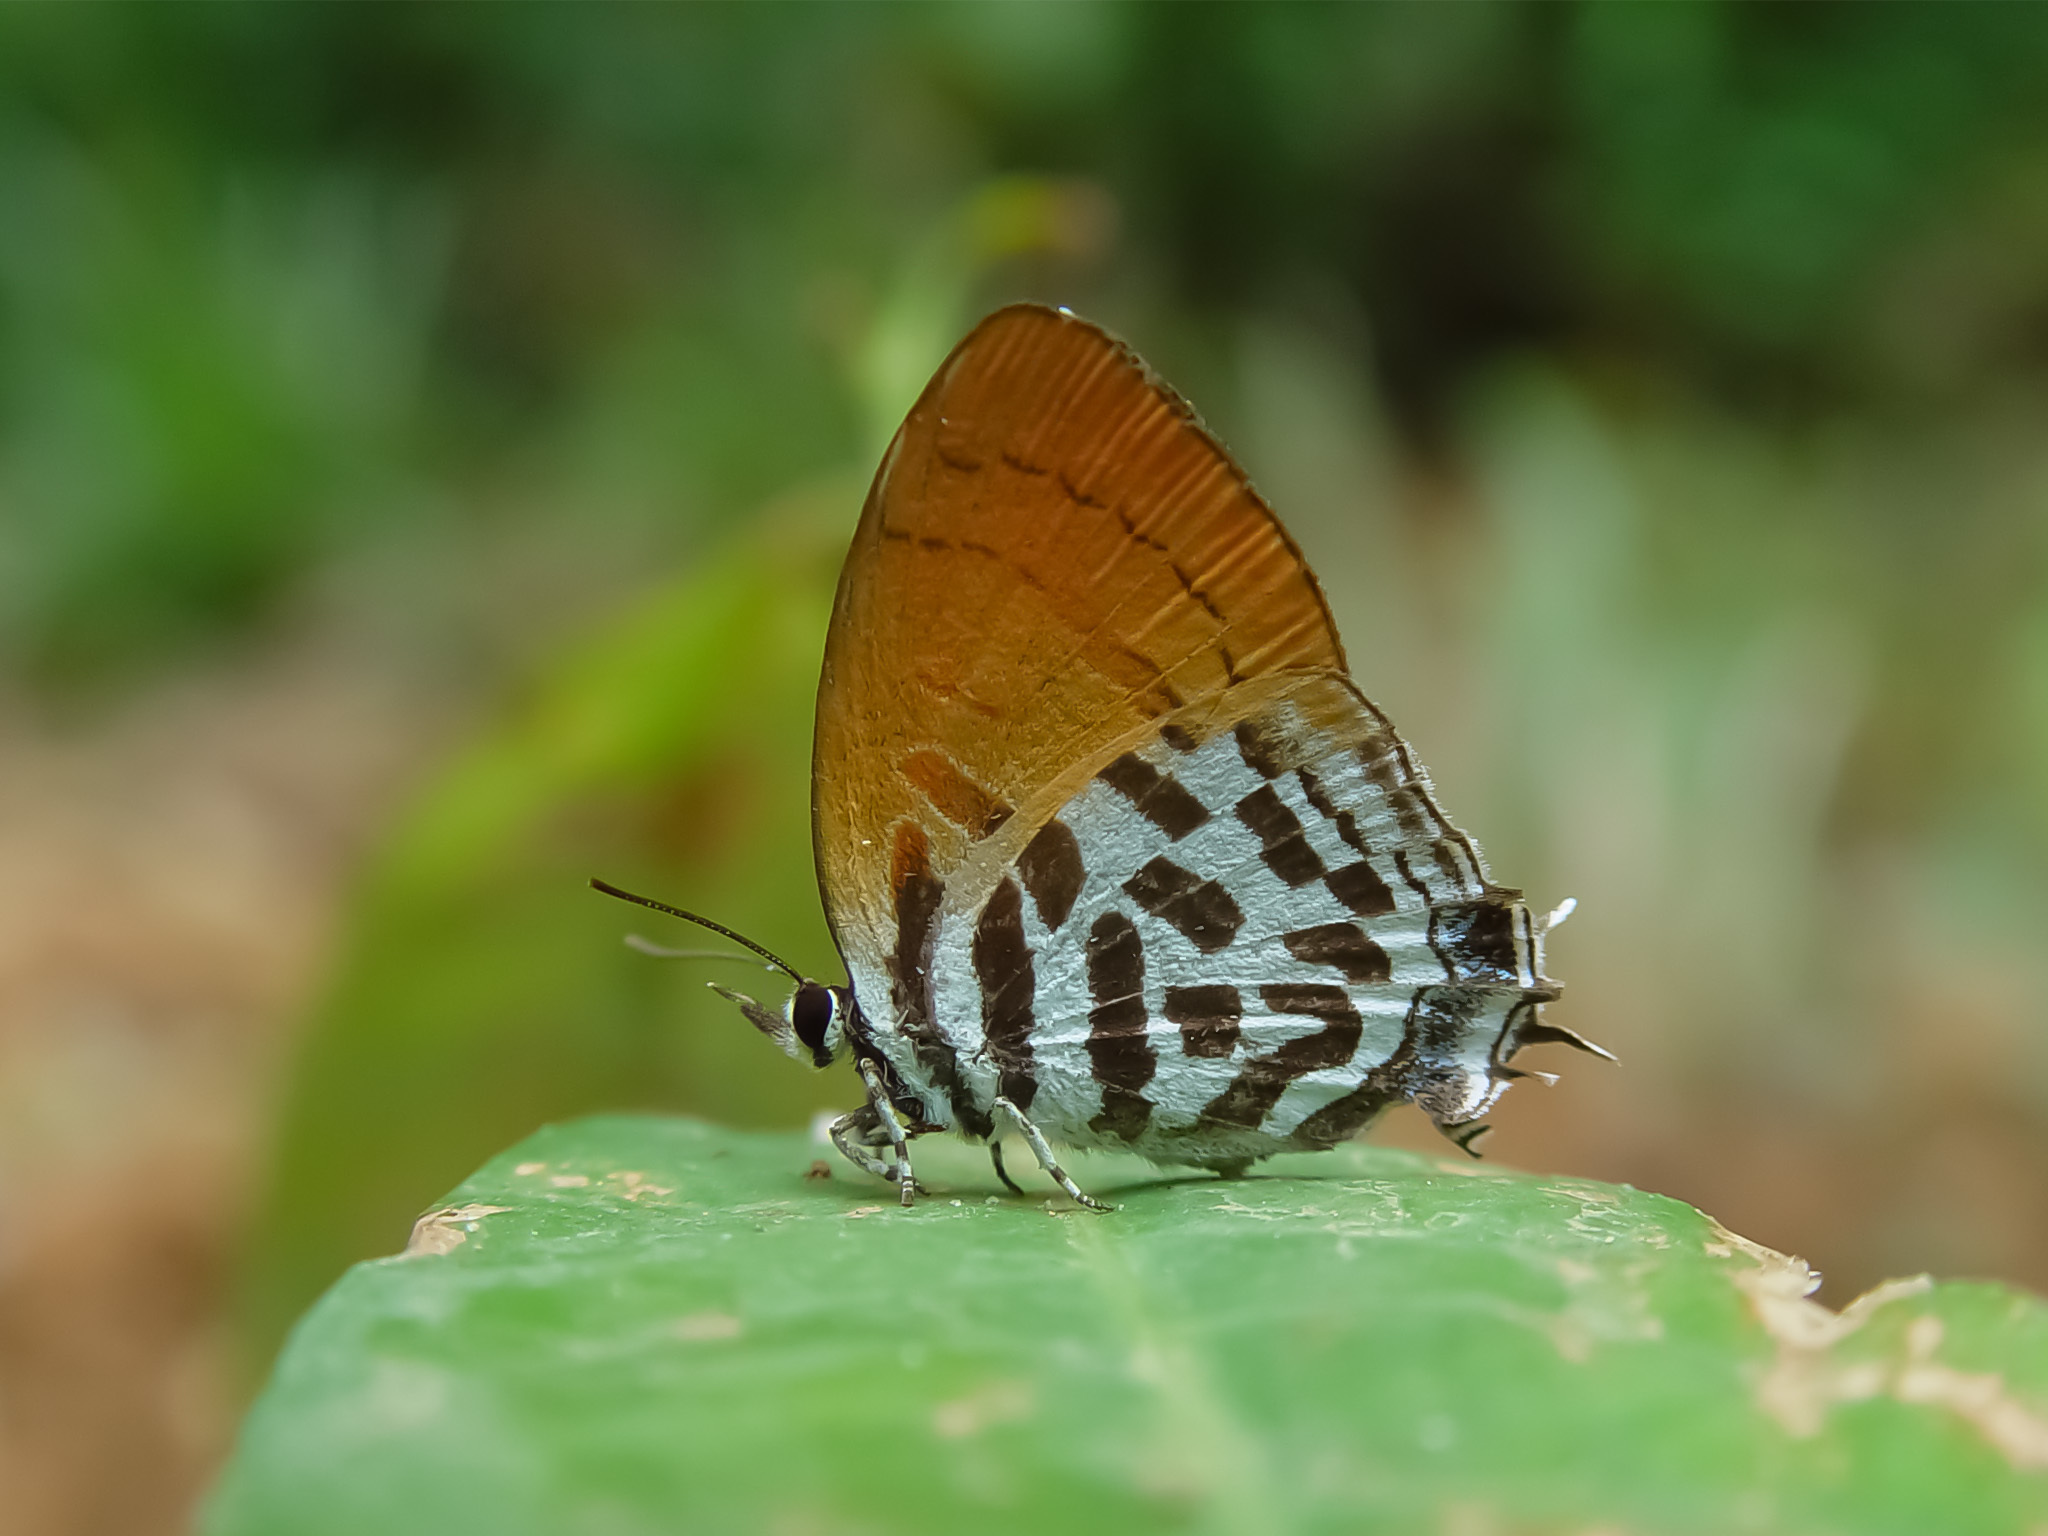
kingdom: Animalia
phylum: Arthropoda
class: Insecta
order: Lepidoptera
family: Lycaenidae
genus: Drupadia
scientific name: Drupadia ravindra
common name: Common posy
